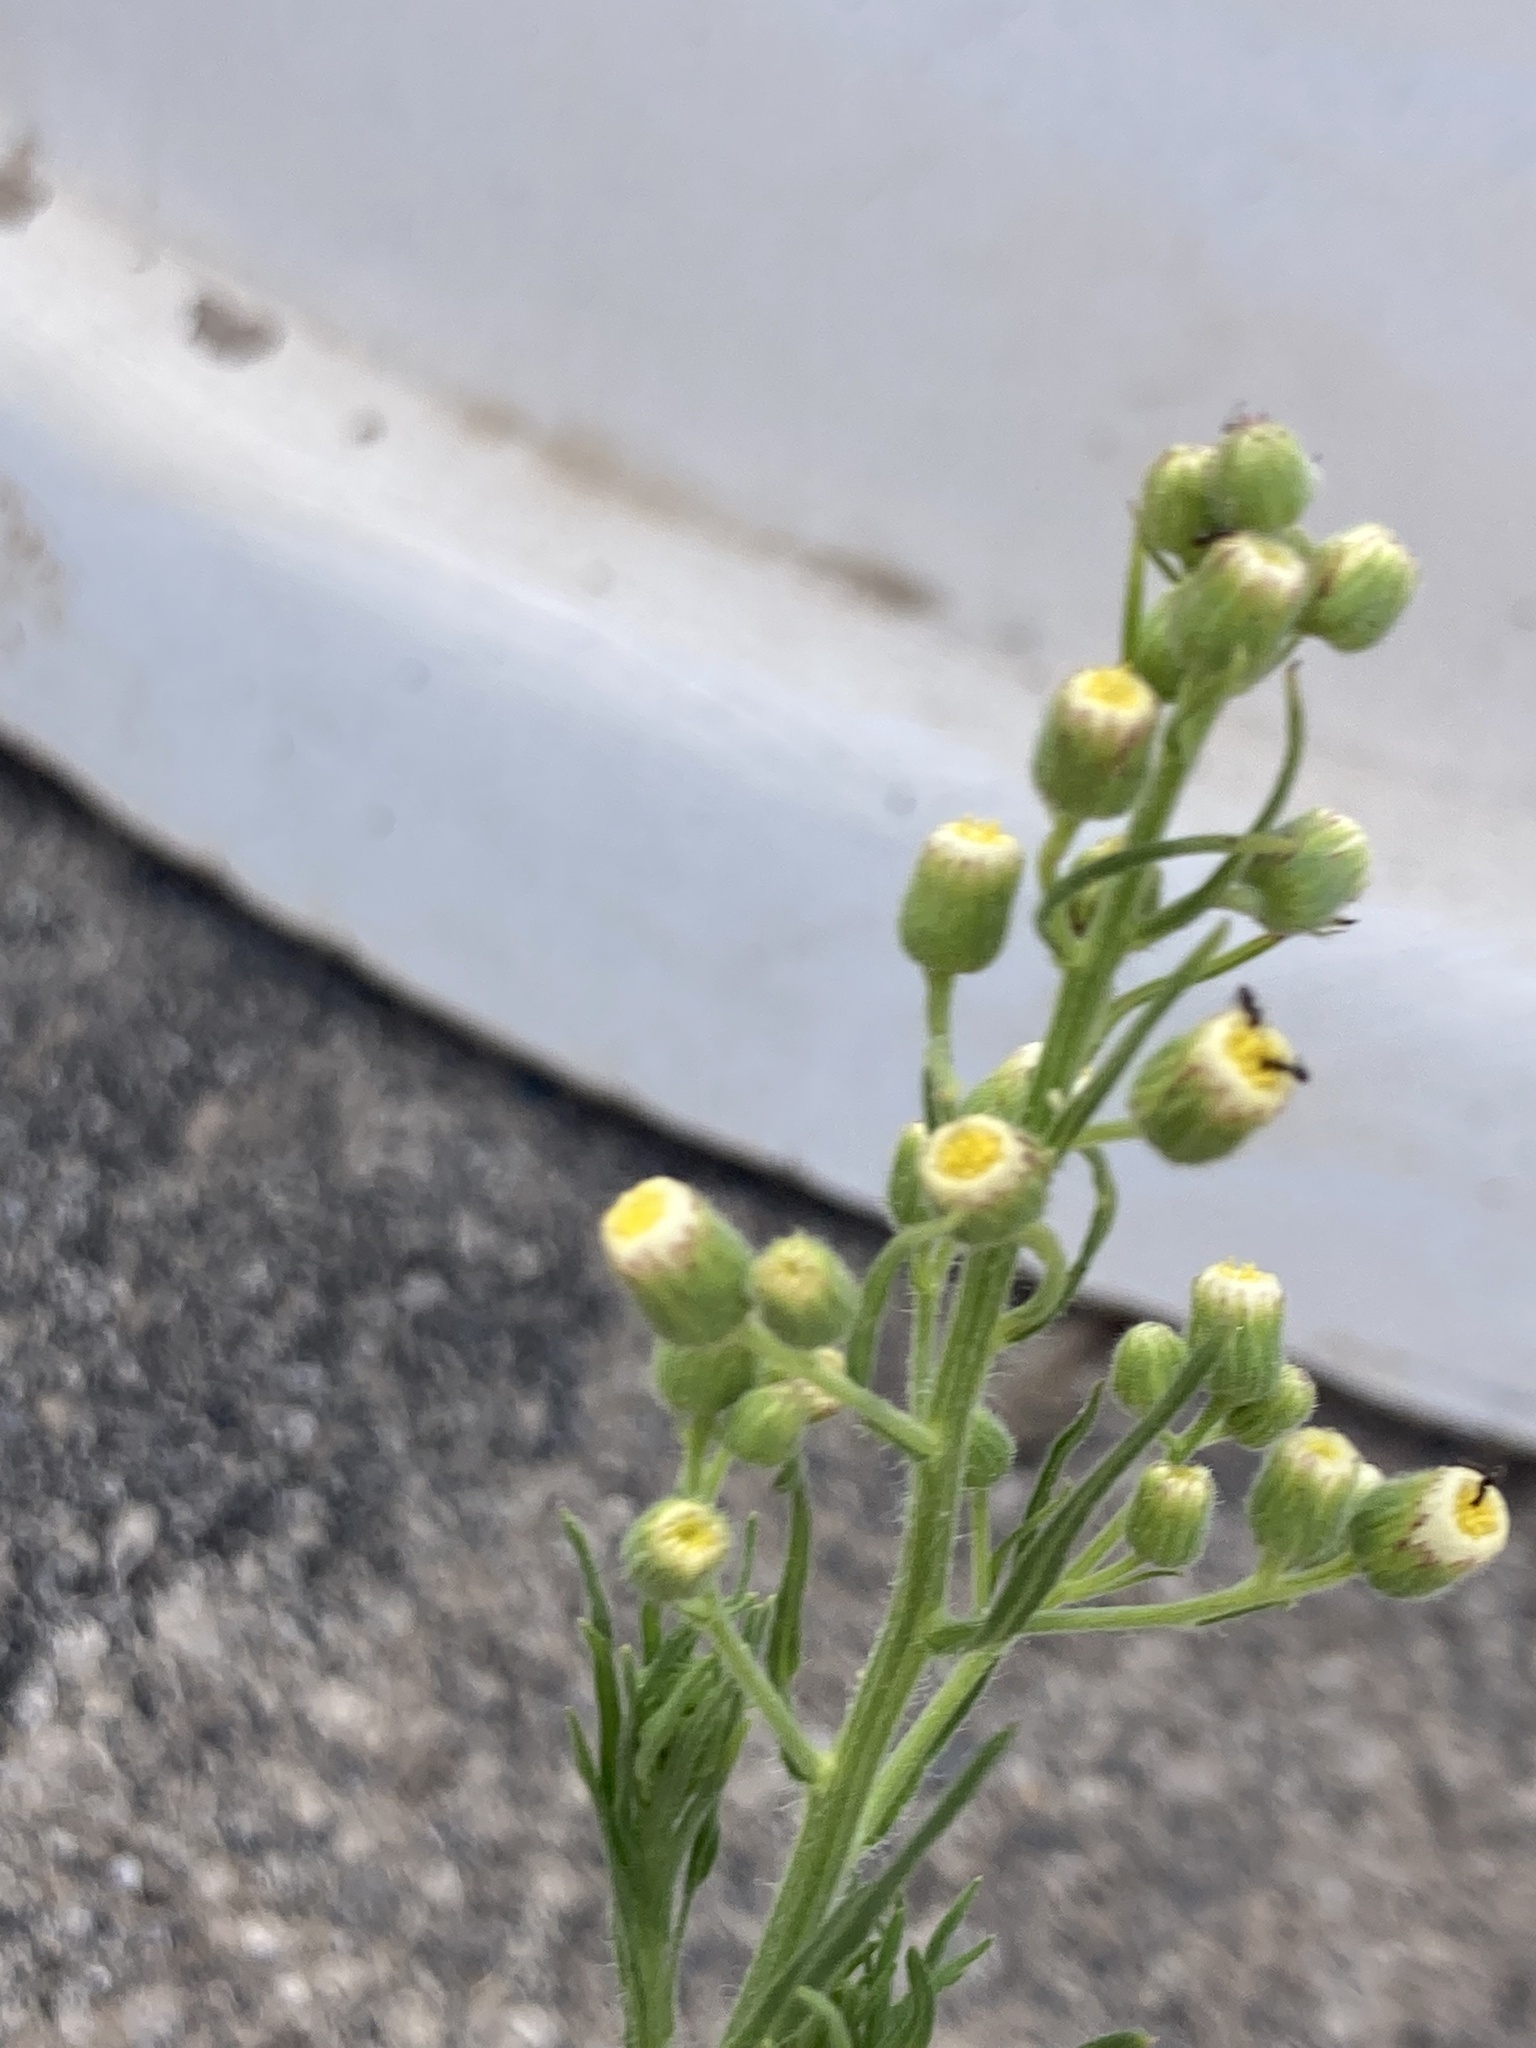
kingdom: Plantae
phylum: Tracheophyta
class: Magnoliopsida
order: Asterales
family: Asteraceae
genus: Erigeron
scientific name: Erigeron bonariensis
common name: Argentine fleabane
